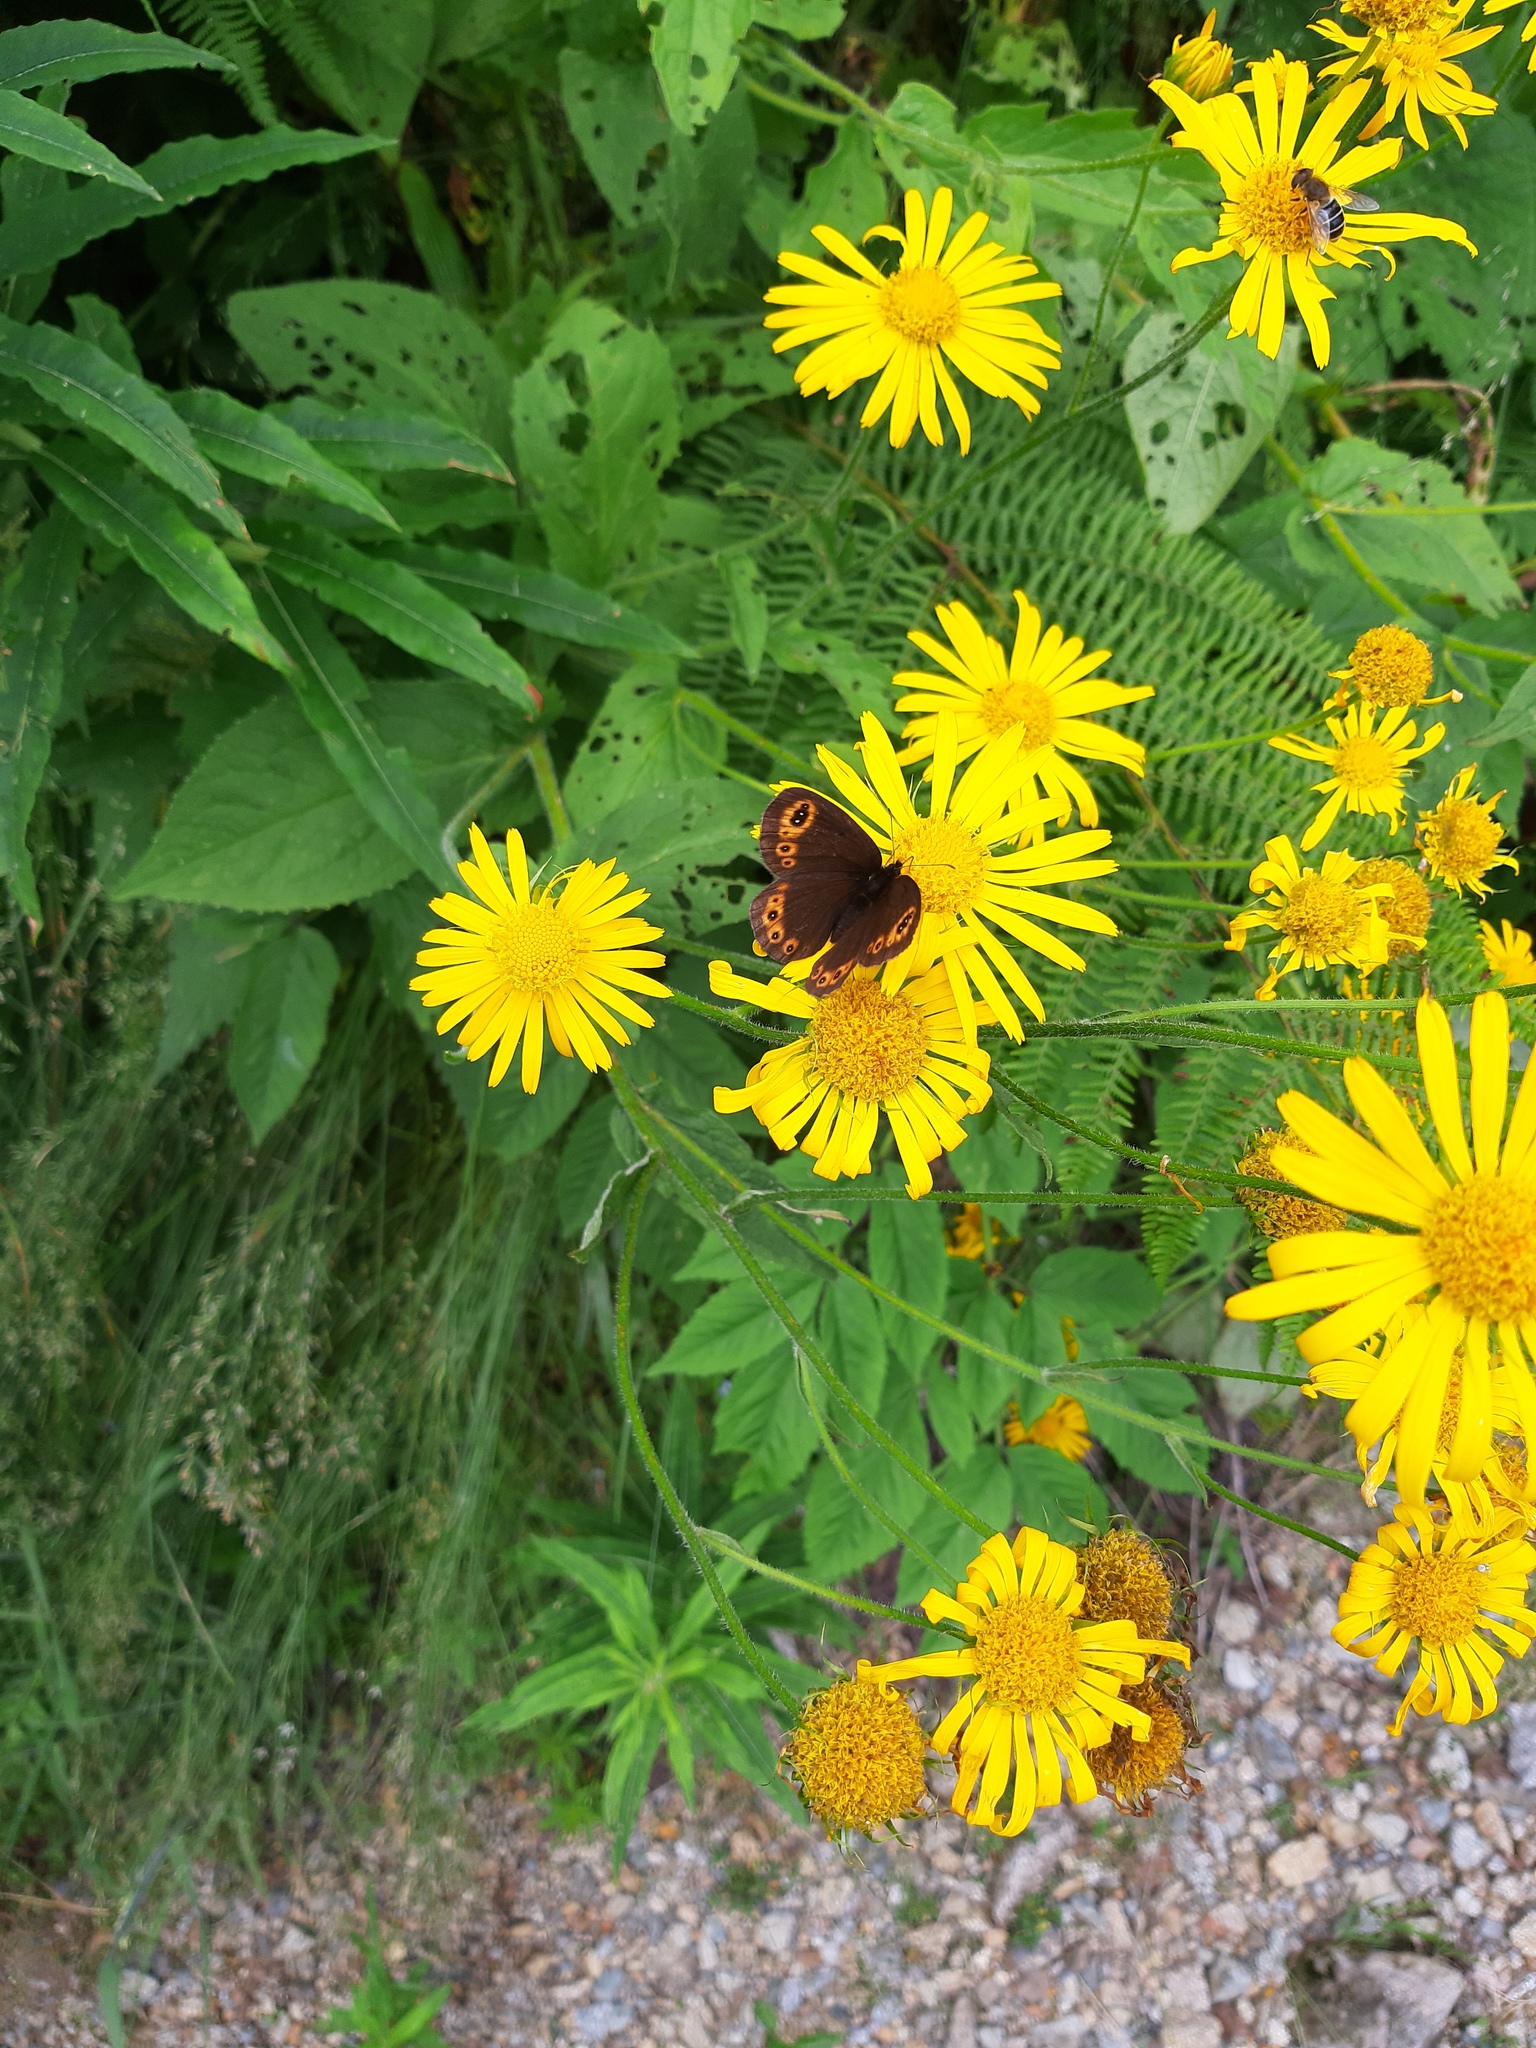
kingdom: Animalia
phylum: Arthropoda
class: Insecta
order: Lepidoptera
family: Nymphalidae
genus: Erebia
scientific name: Erebia medusa
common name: Woodland ringlet
